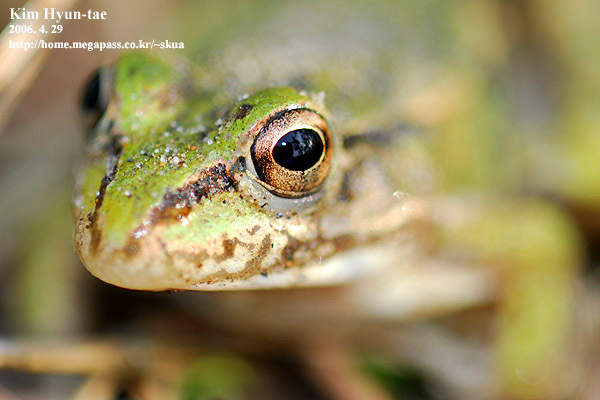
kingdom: Animalia
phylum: Chordata
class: Amphibia
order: Anura
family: Ranidae
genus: Pelophylax
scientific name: Pelophylax nigromaculatus
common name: Black-spotted pond frog
